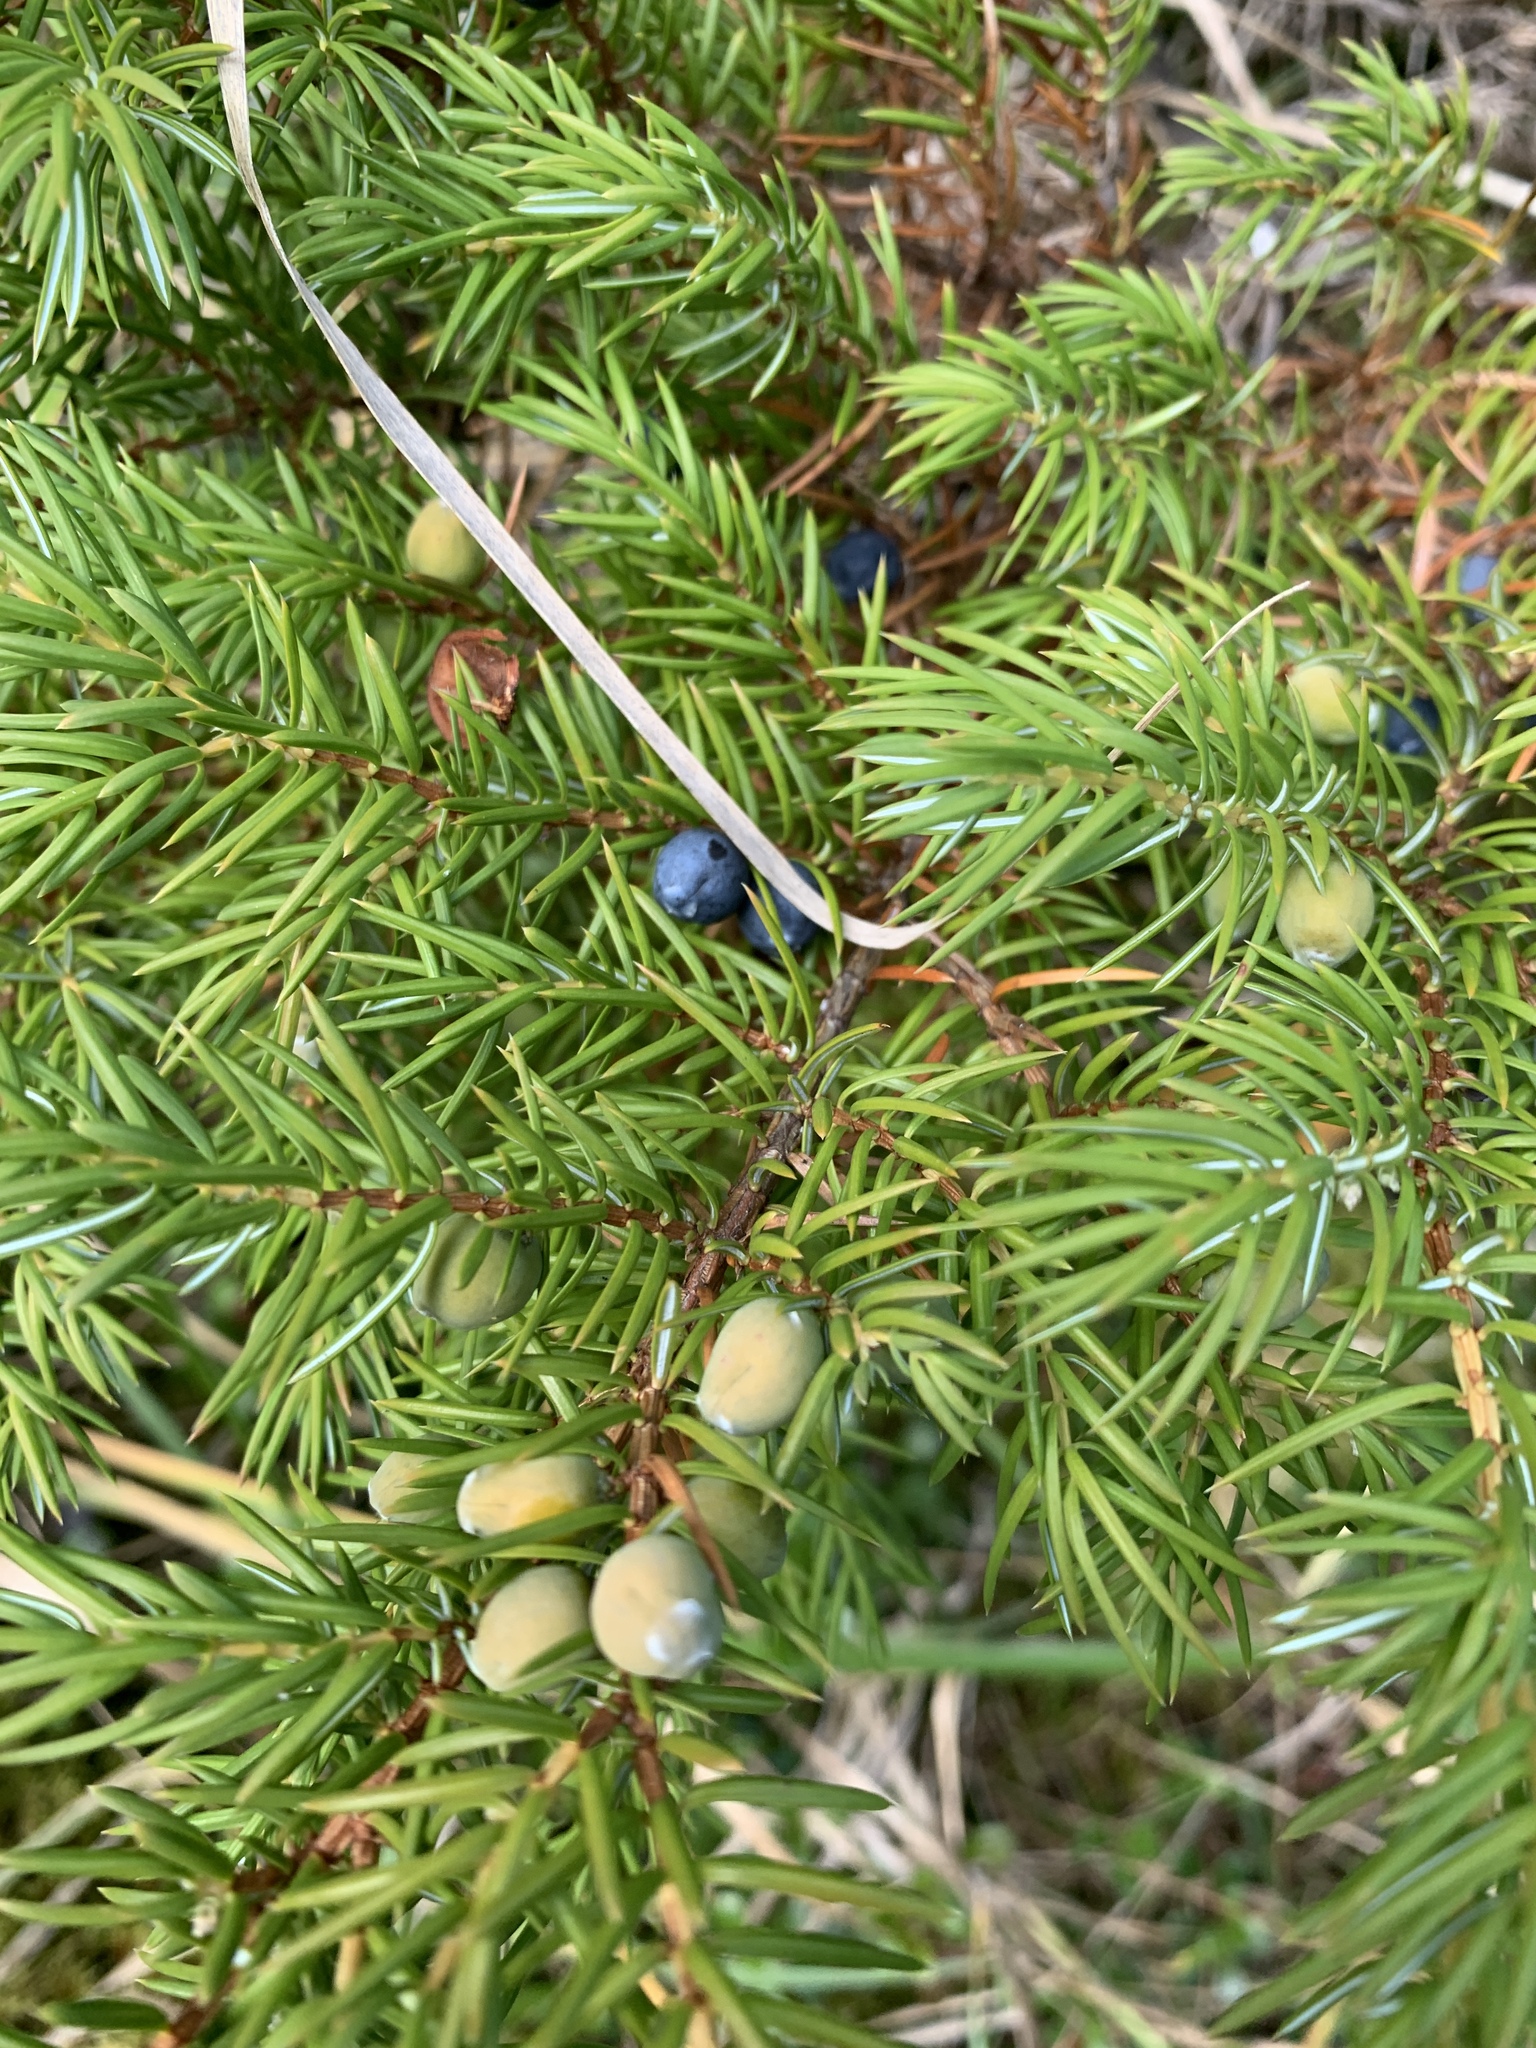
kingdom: Plantae
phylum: Tracheophyta
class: Pinopsida
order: Pinales
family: Cupressaceae
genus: Juniperus
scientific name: Juniperus communis
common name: Common juniper
